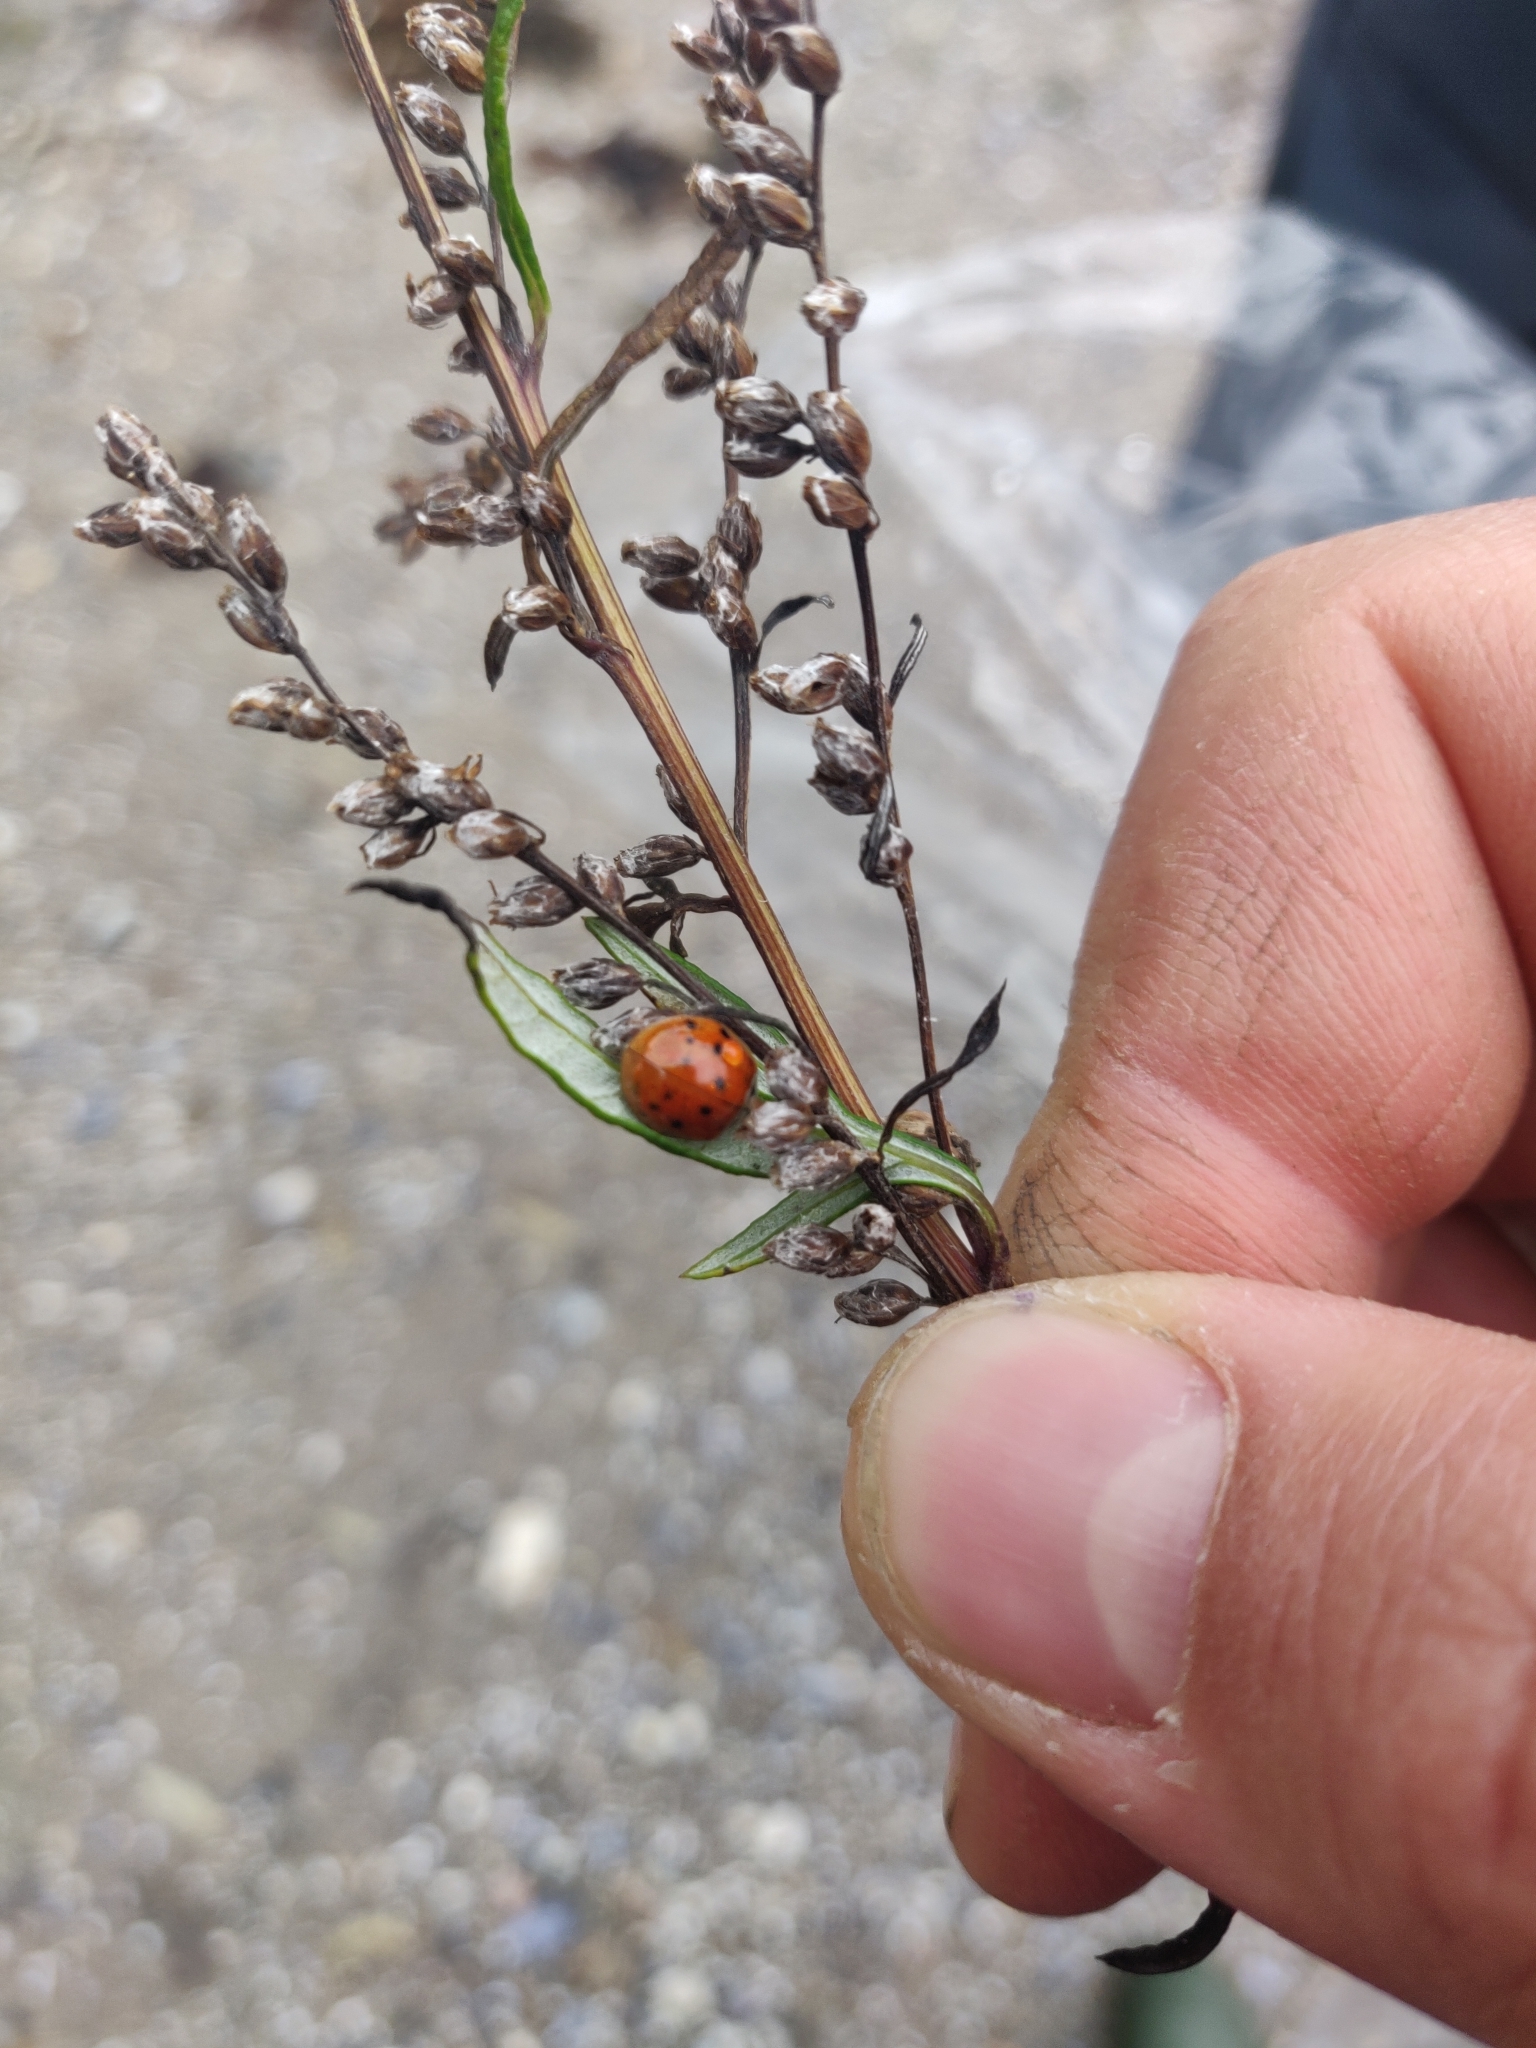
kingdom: Animalia
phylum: Arthropoda
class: Insecta
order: Coleoptera
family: Coccinellidae
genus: Harmonia
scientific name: Harmonia axyridis
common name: Harlequin ladybird
